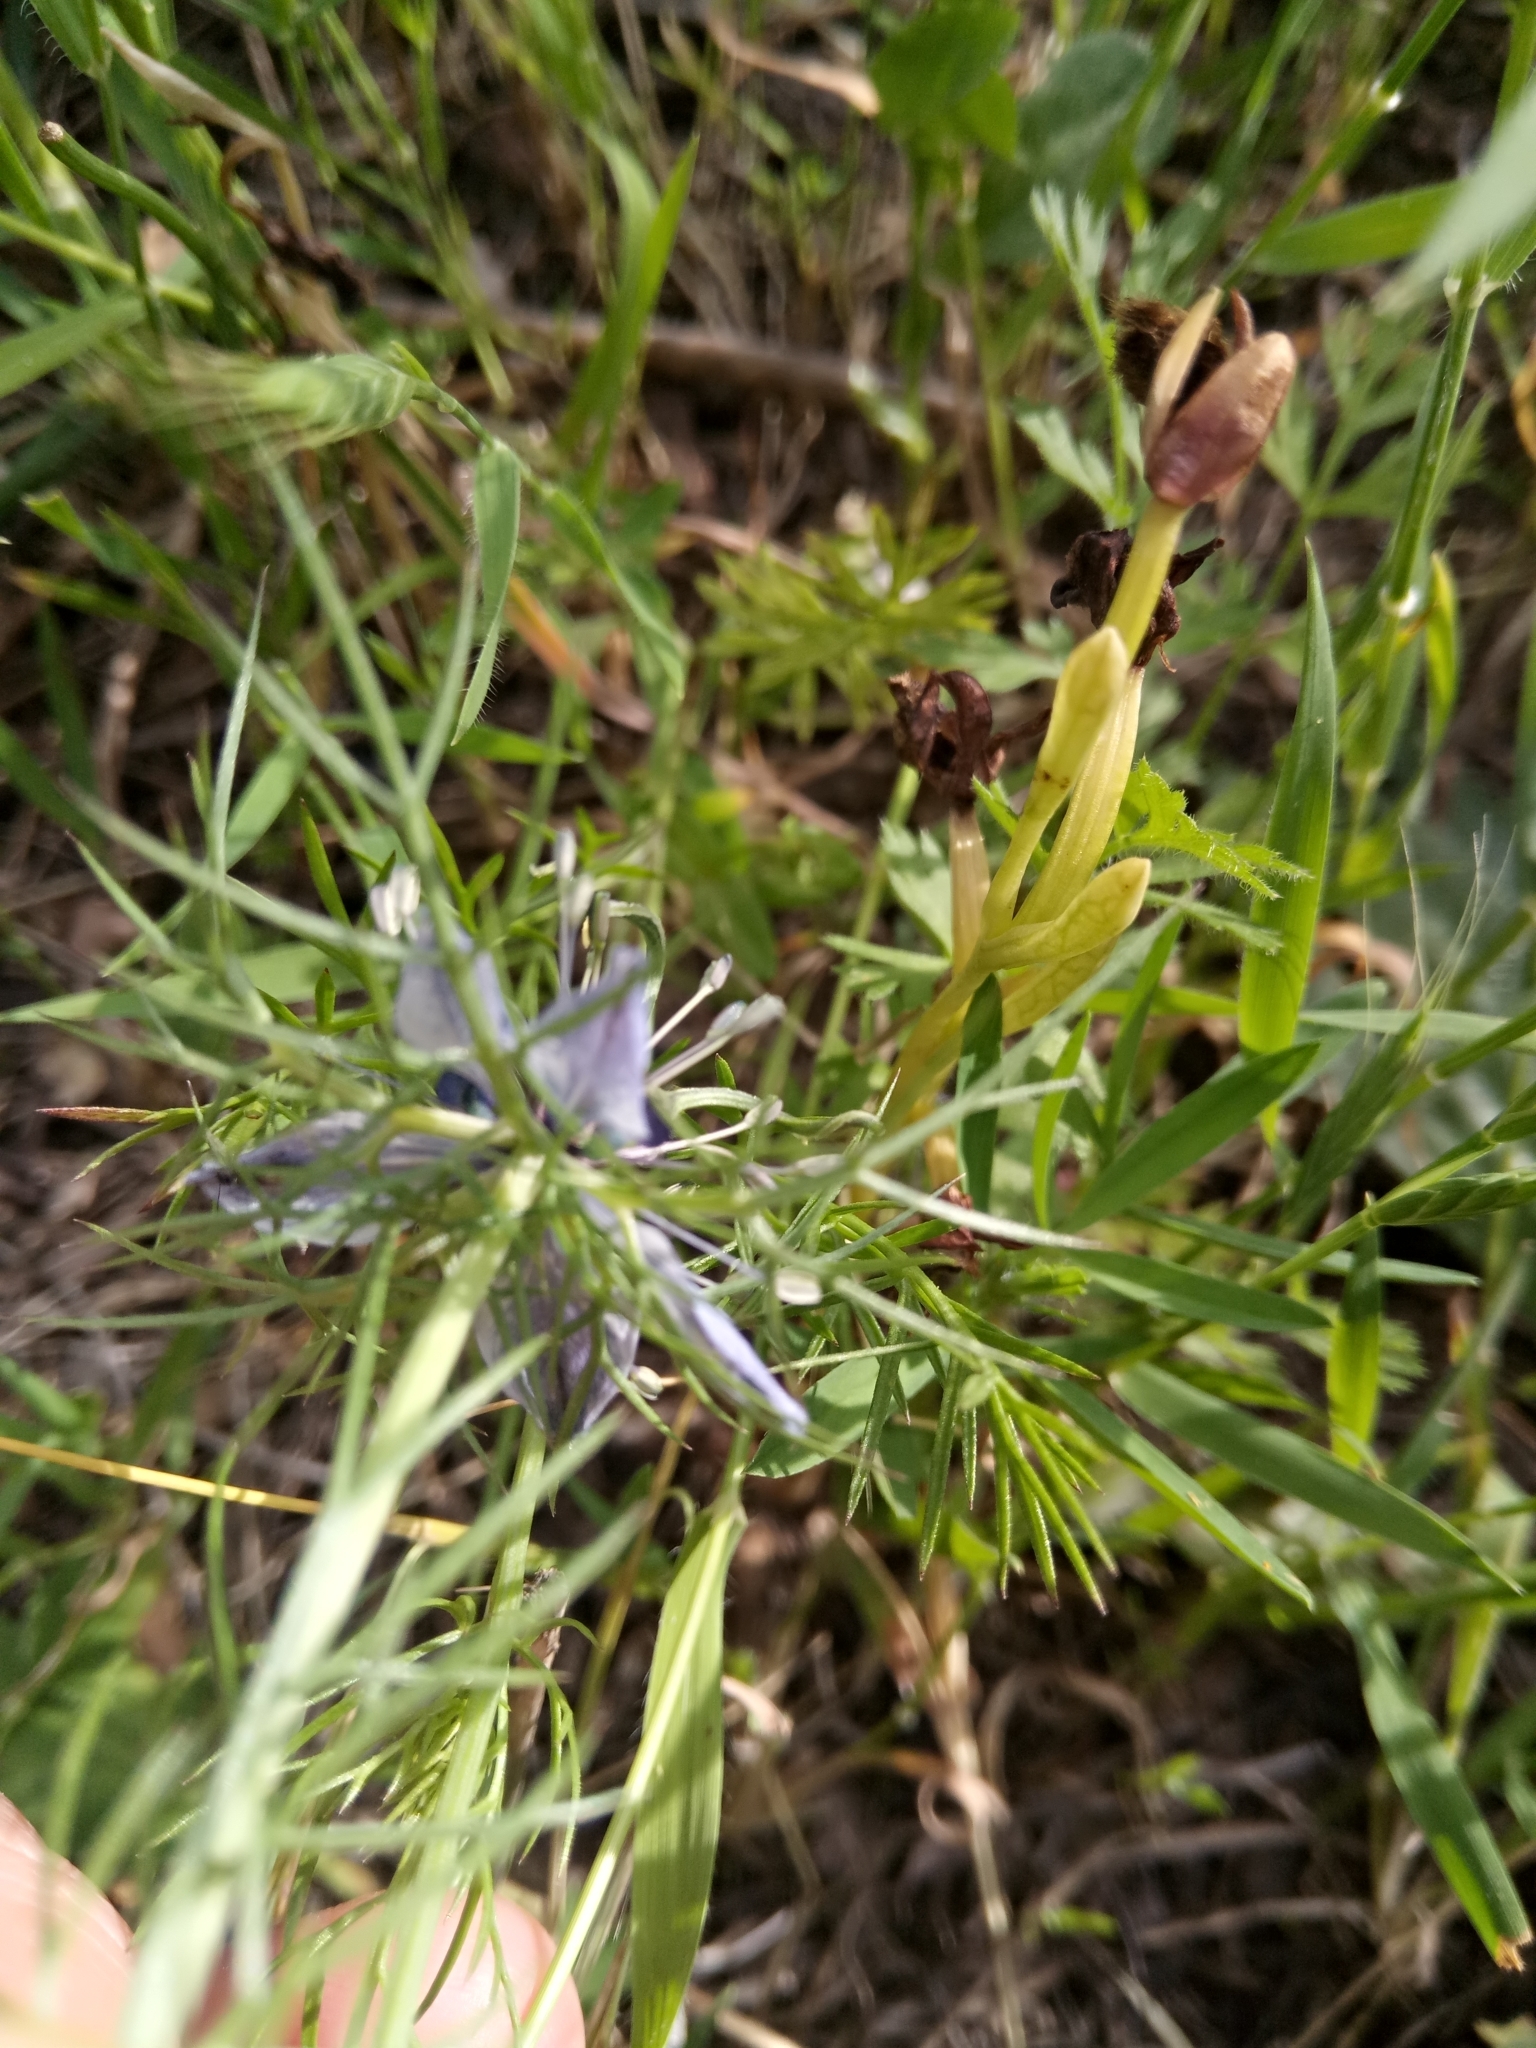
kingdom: Plantae
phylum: Tracheophyta
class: Magnoliopsida
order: Ranunculales
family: Ranunculaceae
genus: Nigella
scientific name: Nigella damascena
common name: Love-in-a-mist
